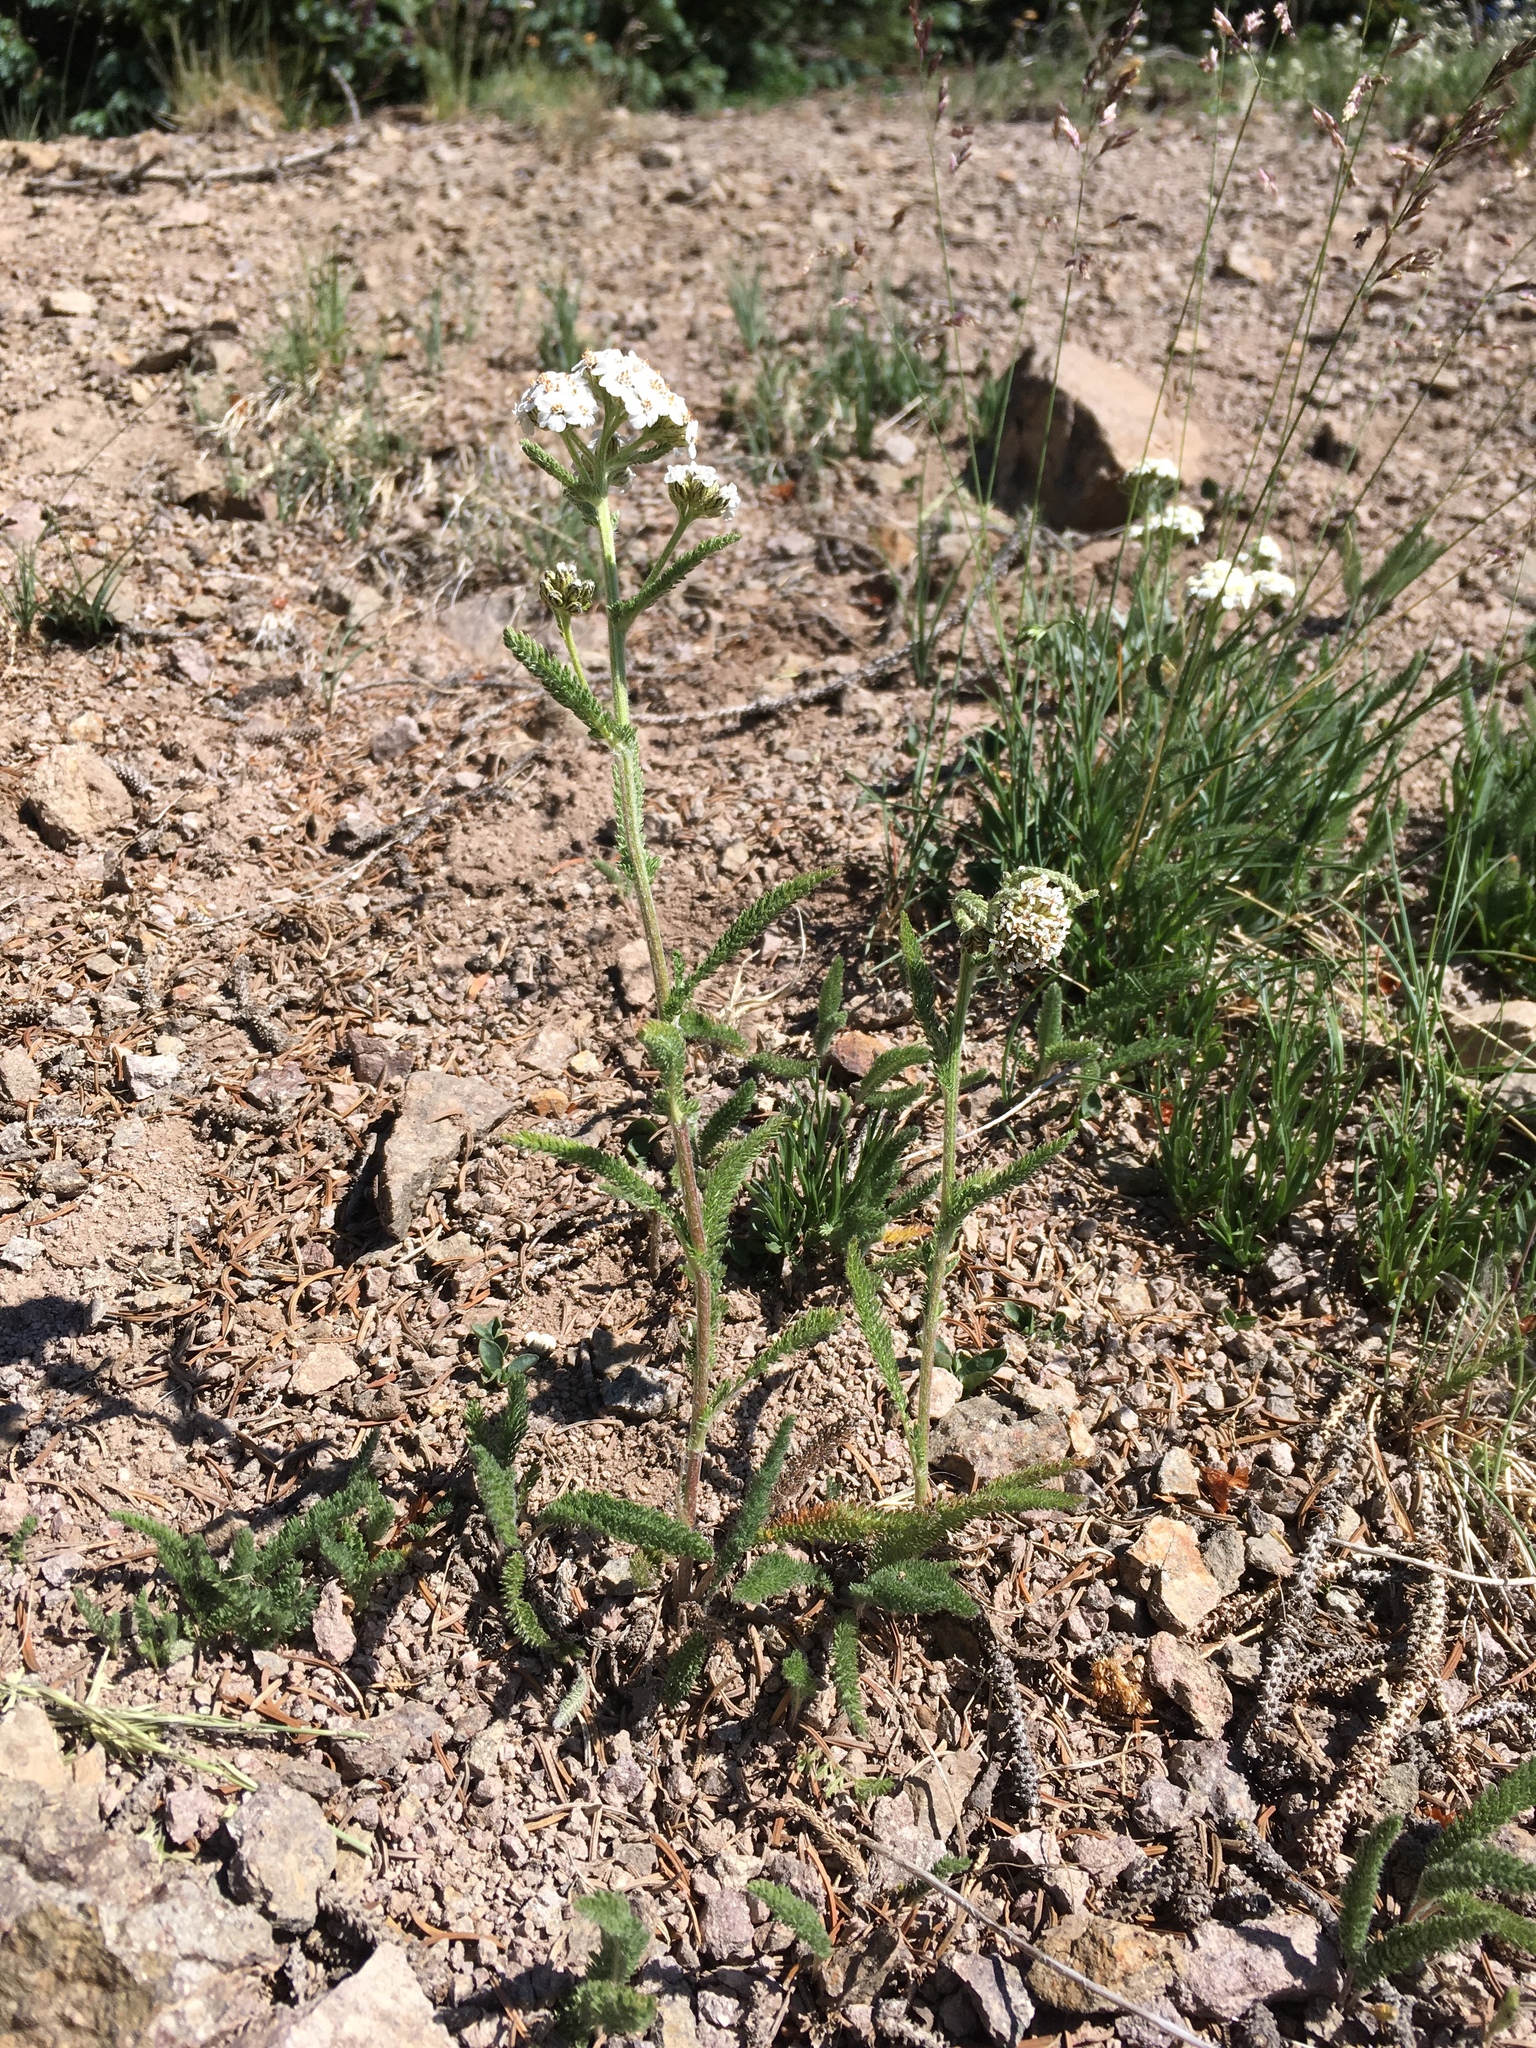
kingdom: Plantae
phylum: Tracheophyta
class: Magnoliopsida
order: Asterales
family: Asteraceae
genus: Achillea
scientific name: Achillea millefolium
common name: Yarrow
